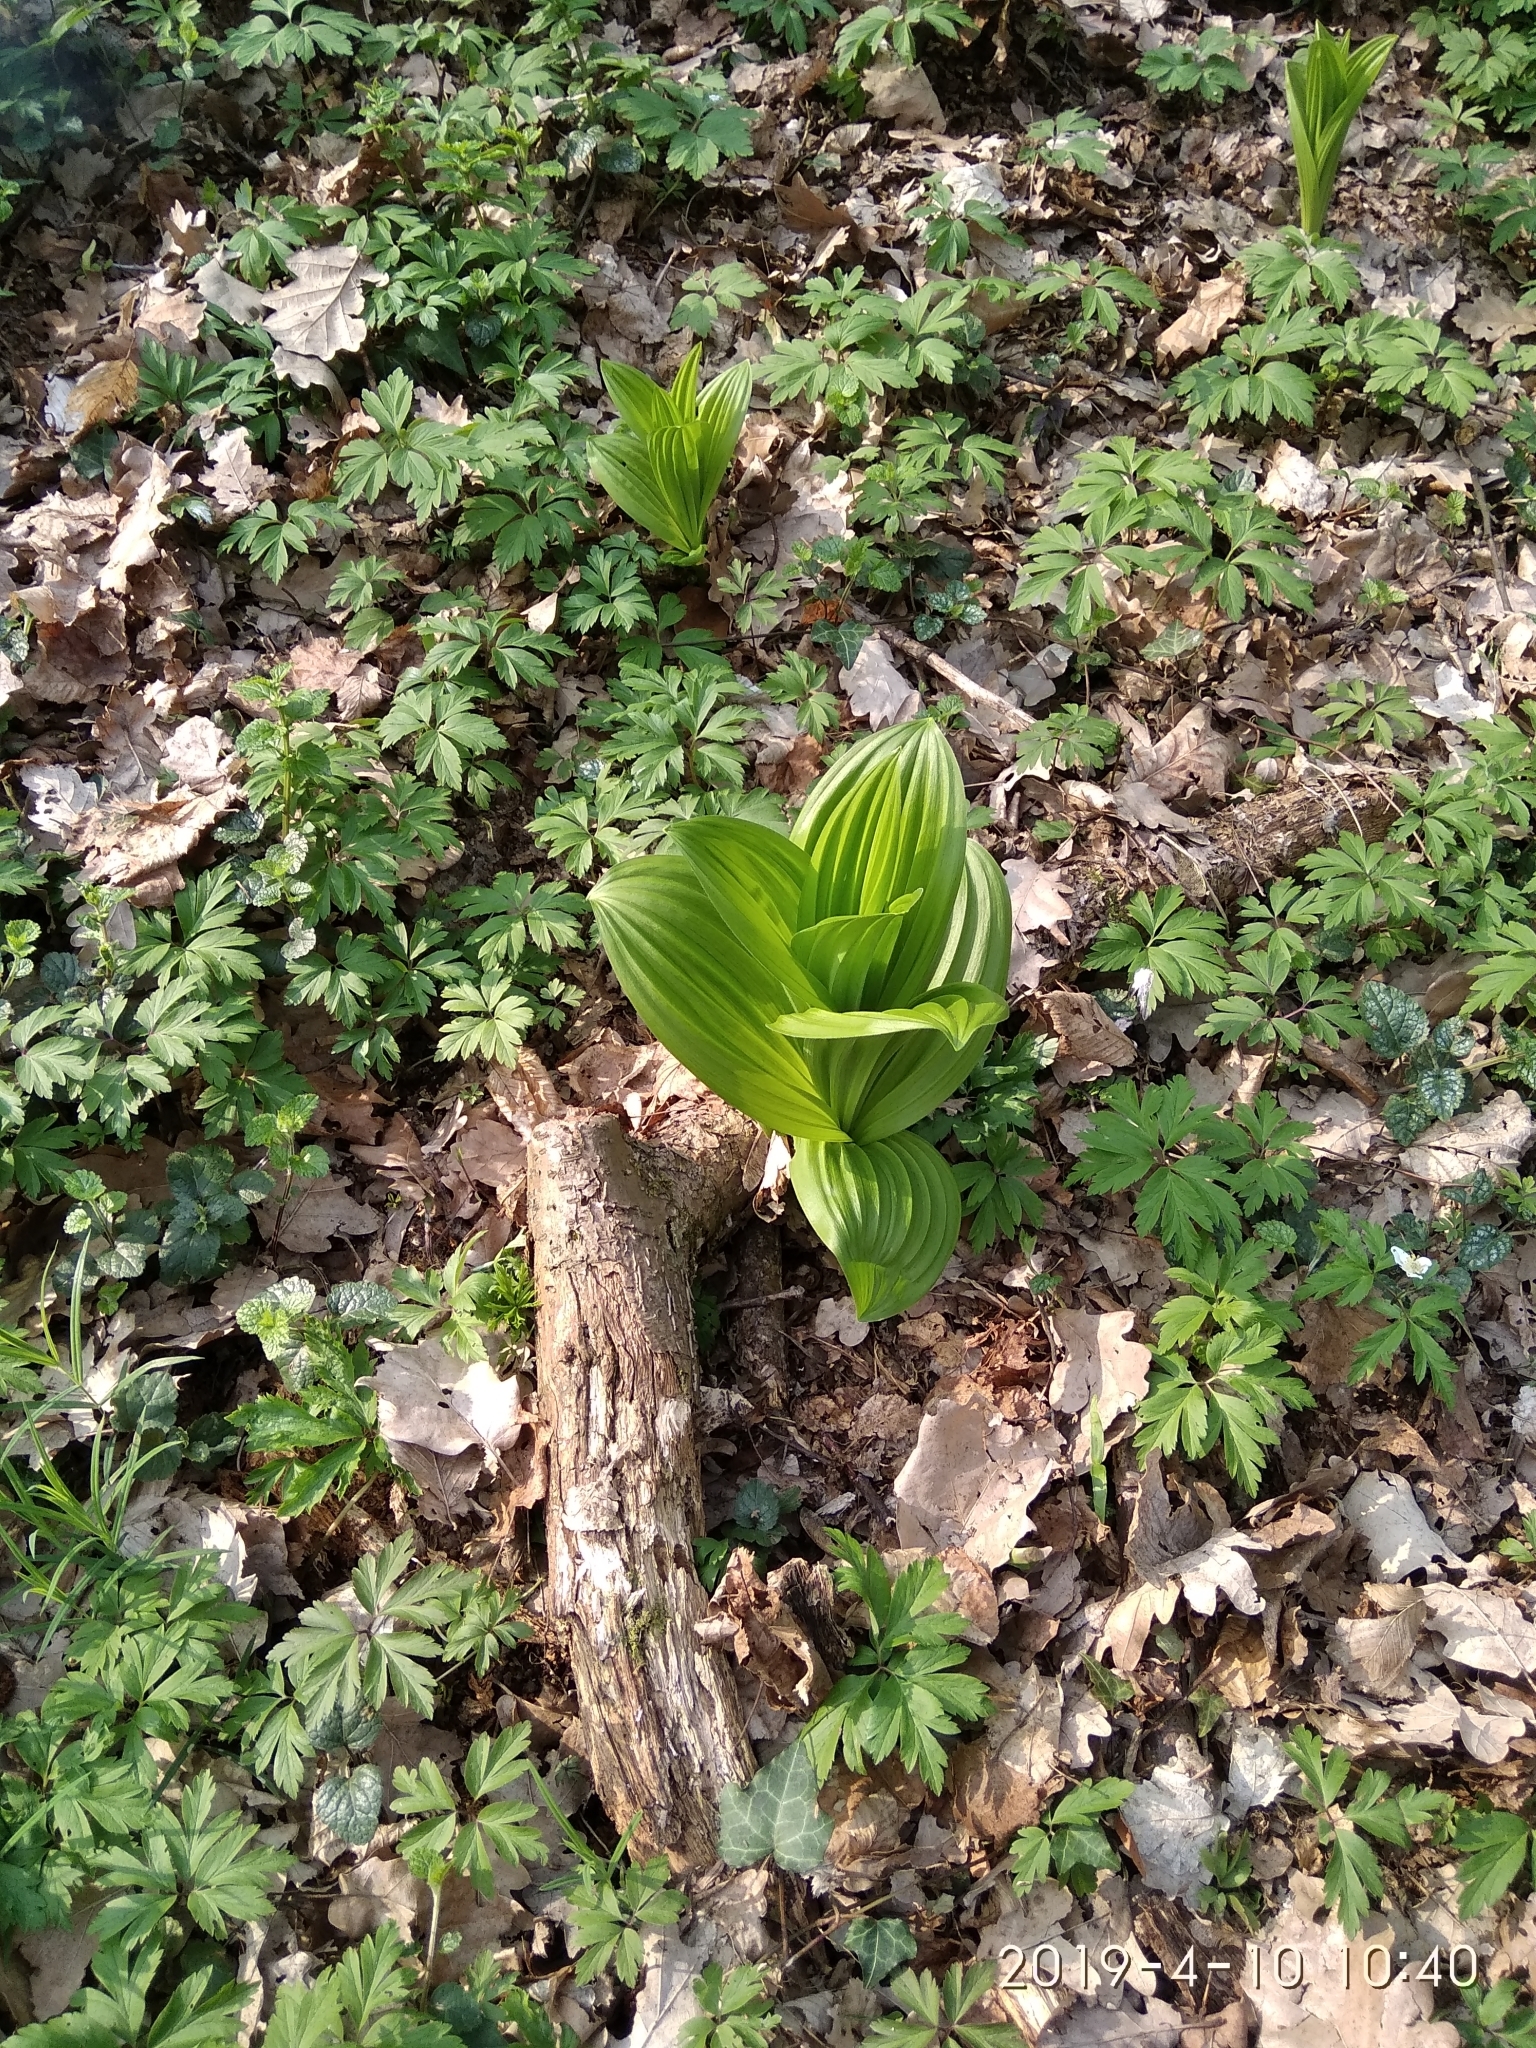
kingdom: Plantae
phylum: Tracheophyta
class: Liliopsida
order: Liliales
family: Melanthiaceae
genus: Veratrum
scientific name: Veratrum lobelianum
